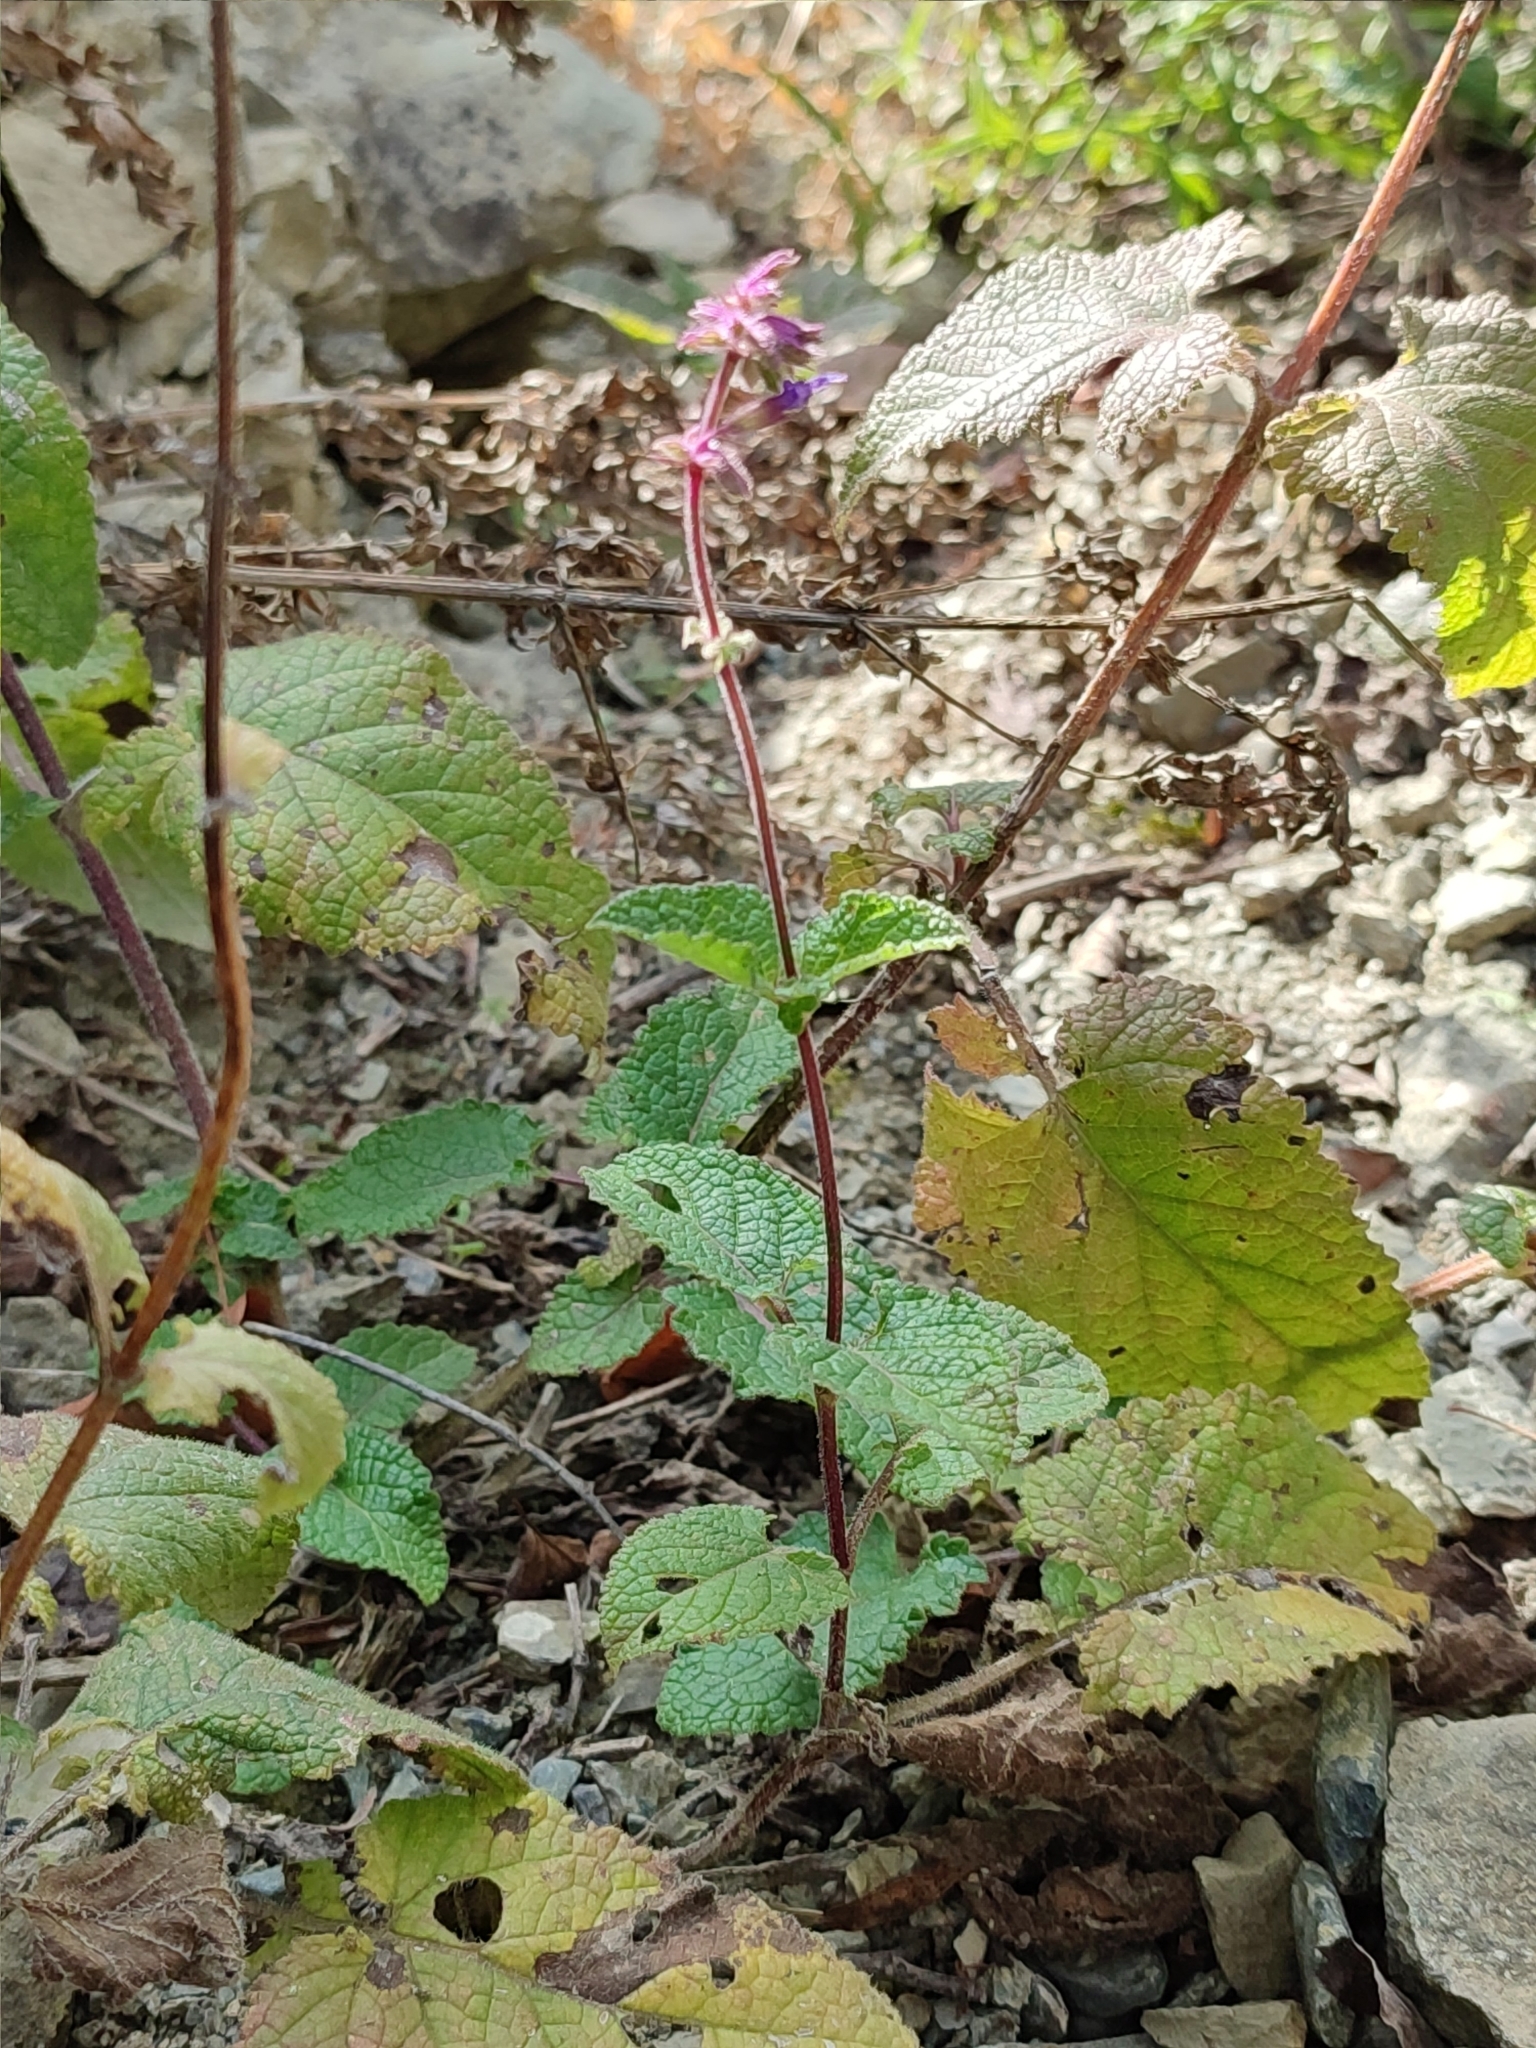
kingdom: Plantae
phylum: Tracheophyta
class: Magnoliopsida
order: Lamiales
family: Lamiaceae
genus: Salvia
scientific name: Salvia verticillata
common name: Whorled clary
